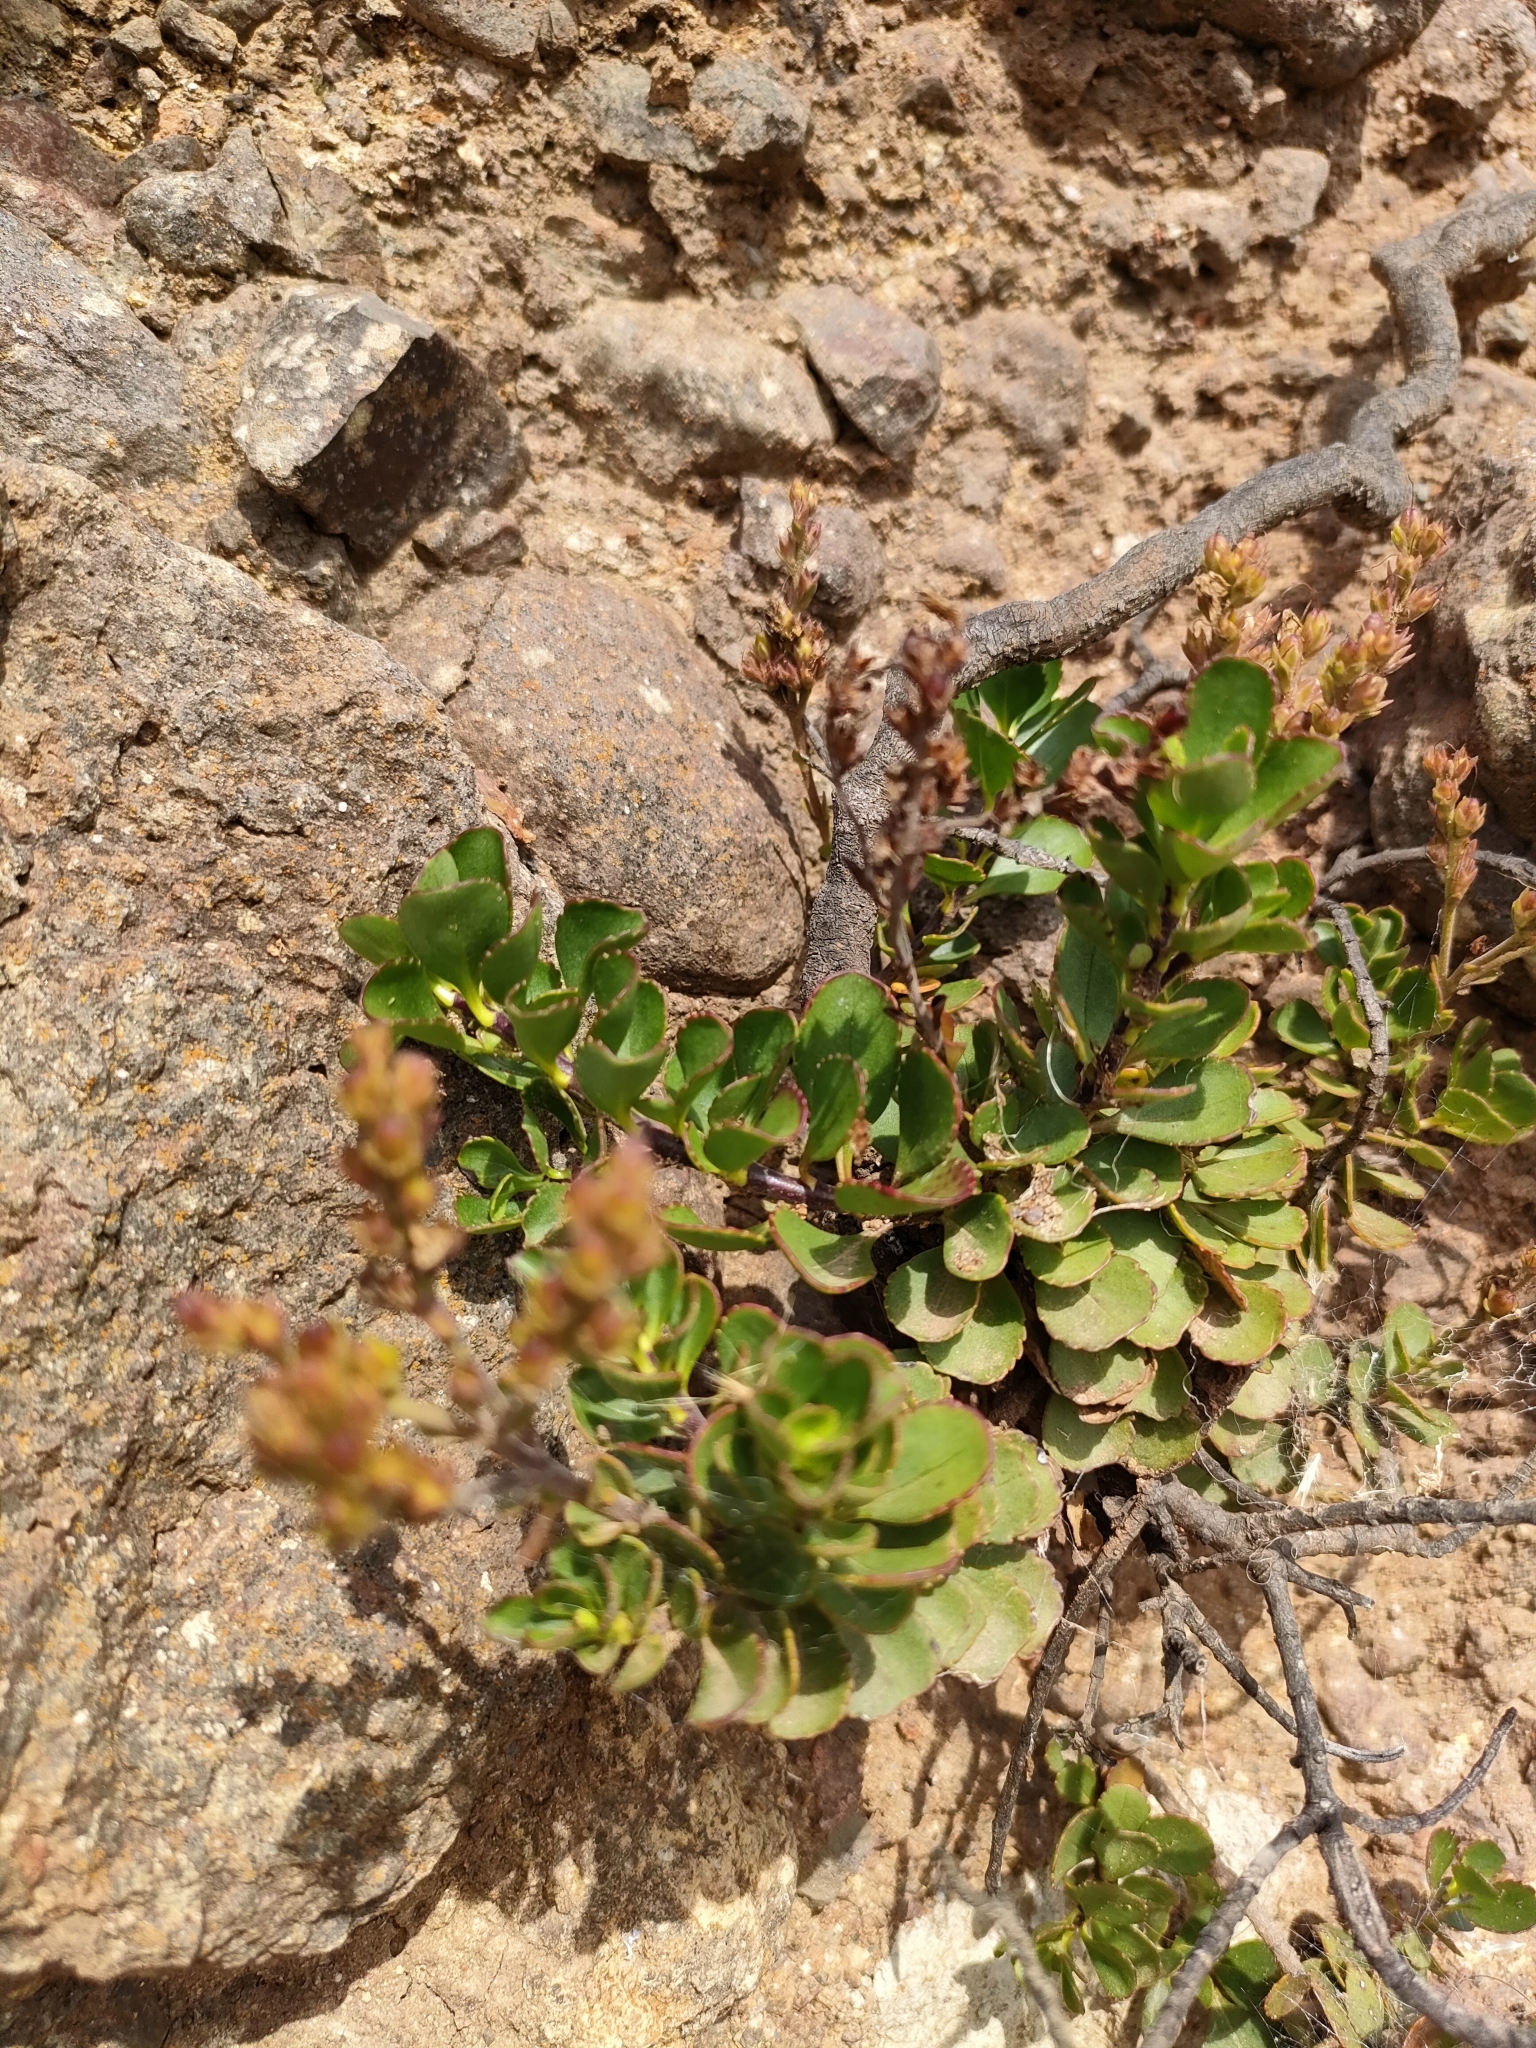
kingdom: Plantae
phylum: Tracheophyta
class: Magnoliopsida
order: Lamiales
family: Plantaginaceae
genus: Veronica
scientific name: Veronica lavaudiana
